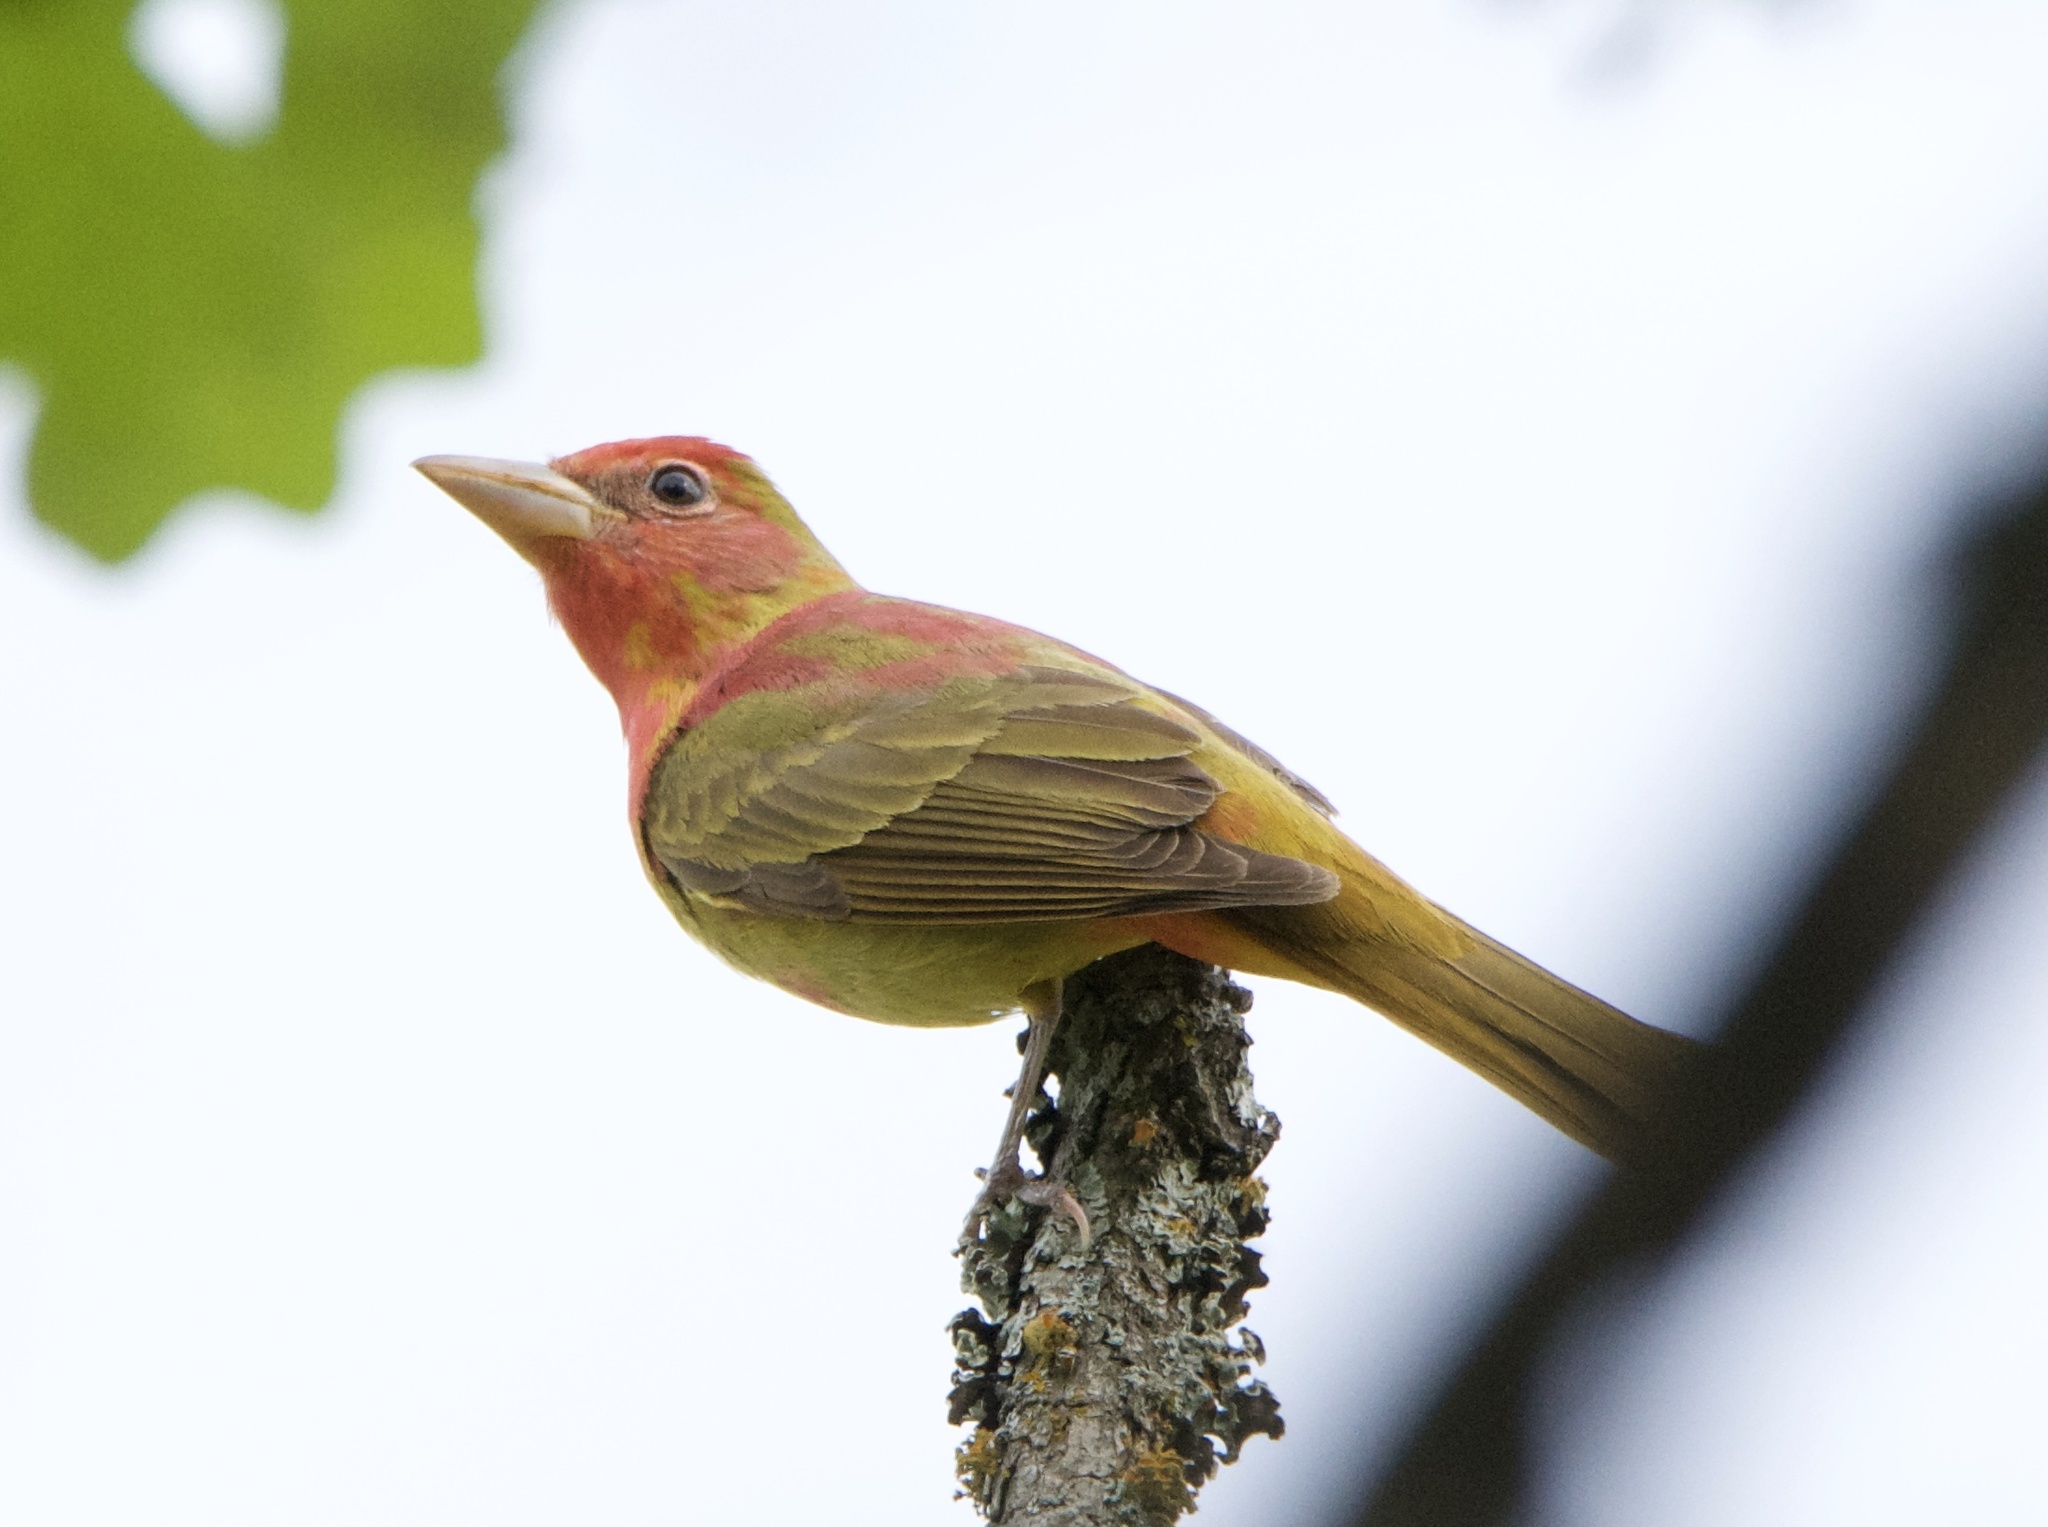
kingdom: Animalia
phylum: Chordata
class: Aves
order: Passeriformes
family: Cardinalidae
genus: Piranga
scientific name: Piranga rubra
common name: Summer tanager
